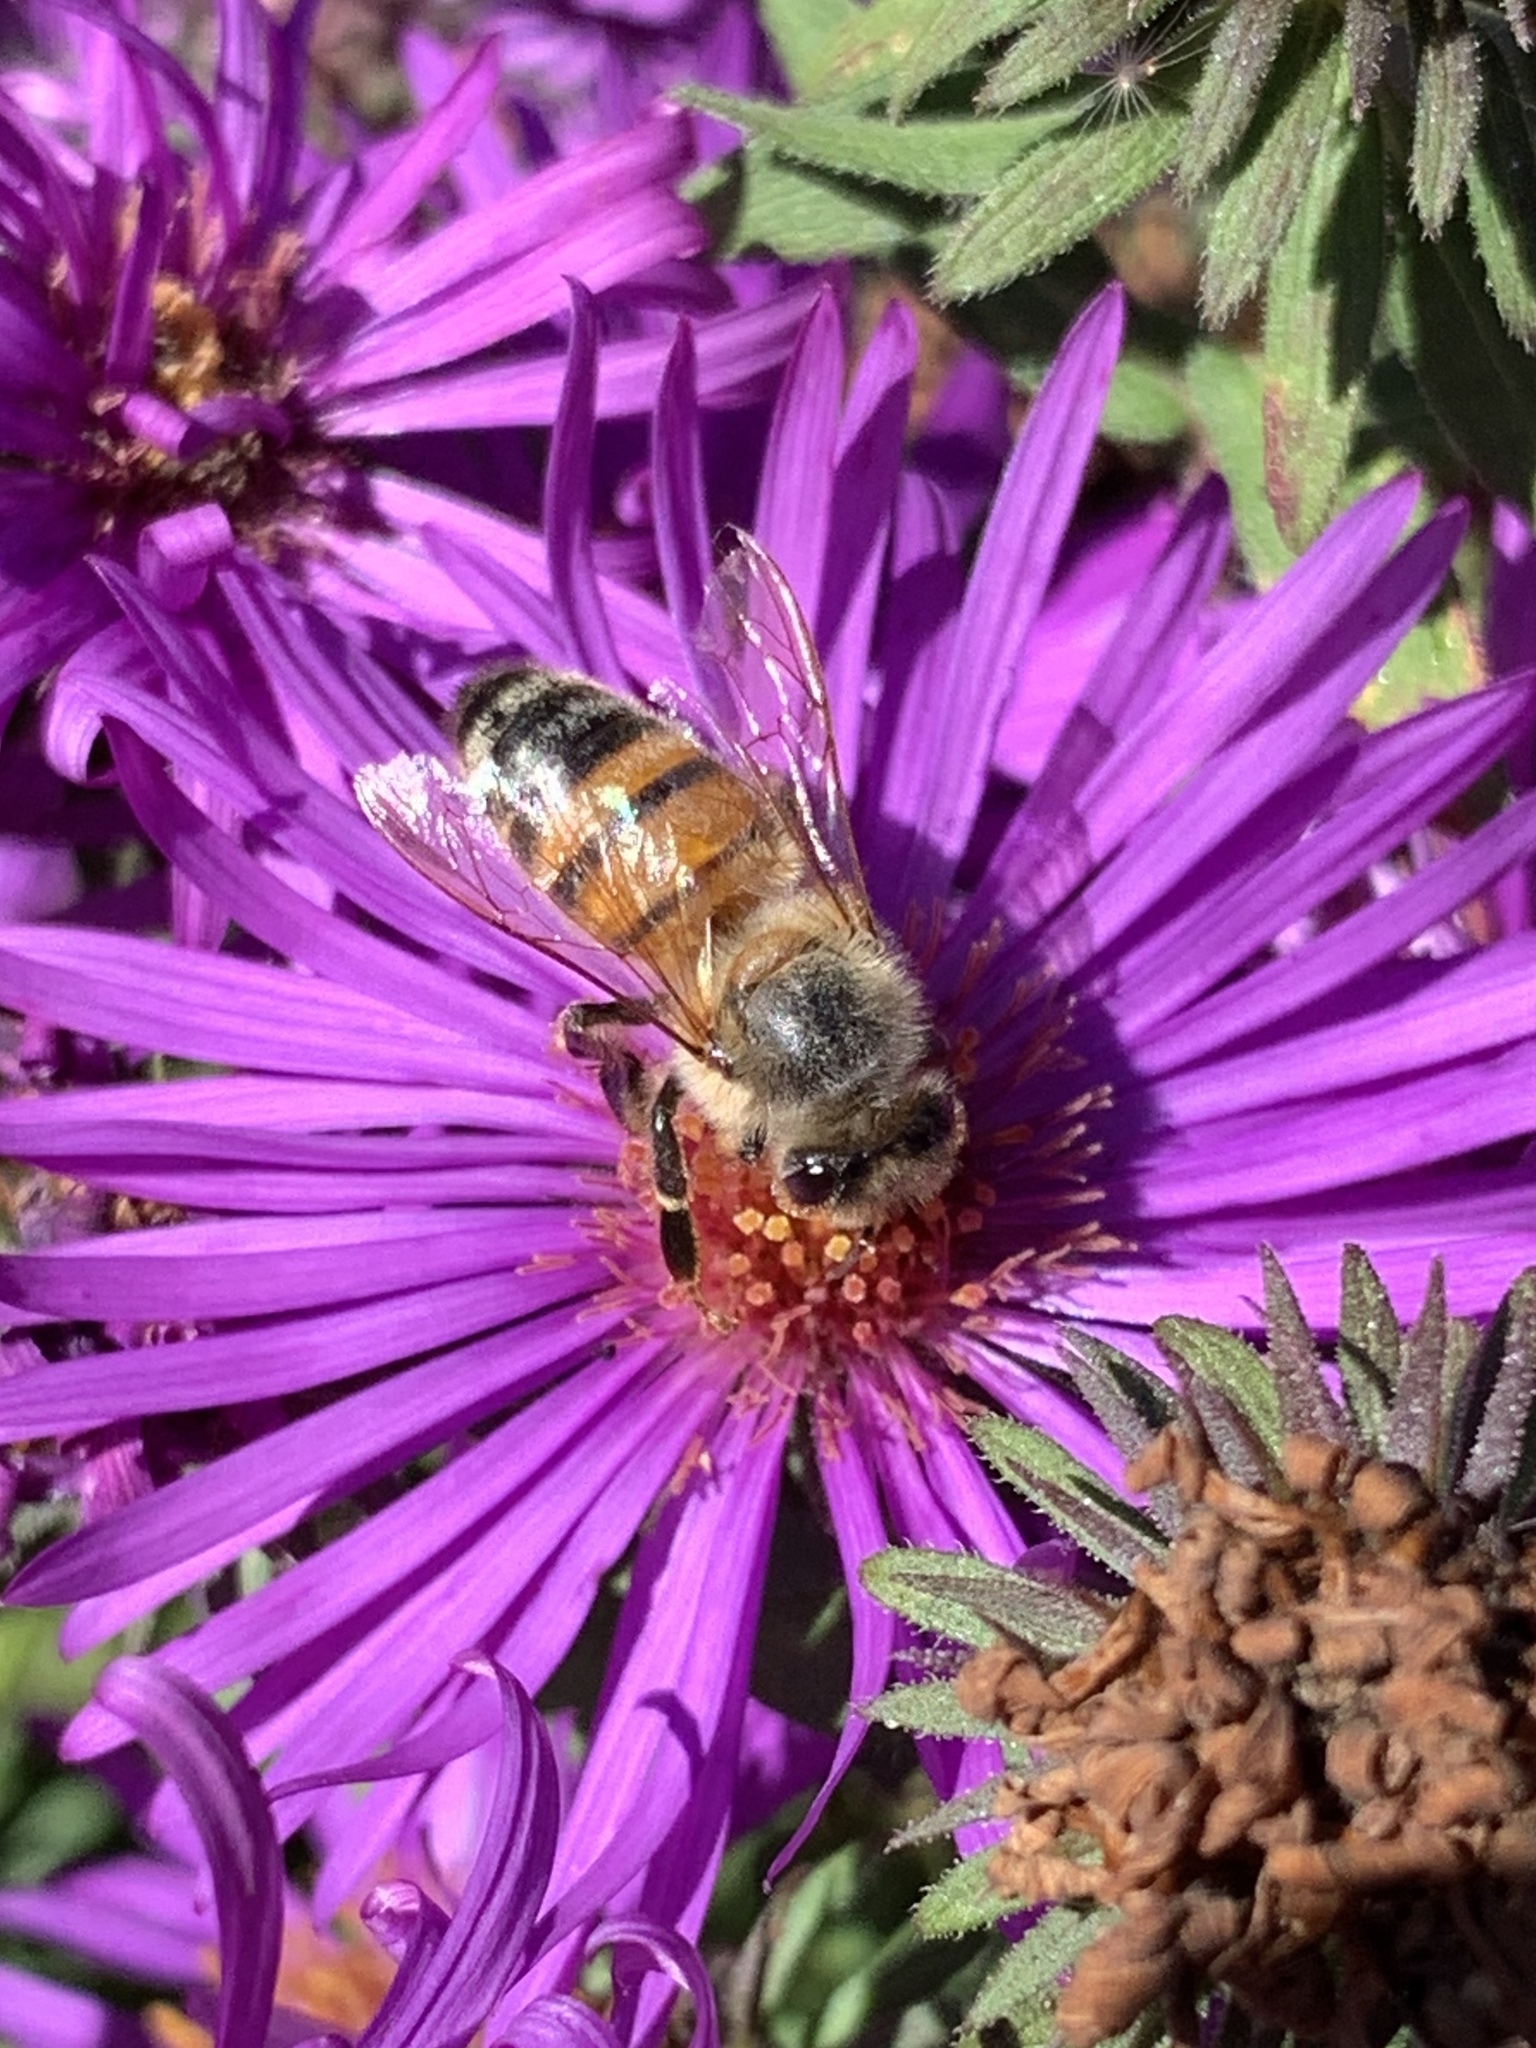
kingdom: Animalia
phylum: Arthropoda
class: Insecta
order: Hymenoptera
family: Apidae
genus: Apis
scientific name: Apis mellifera
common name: Honey bee
